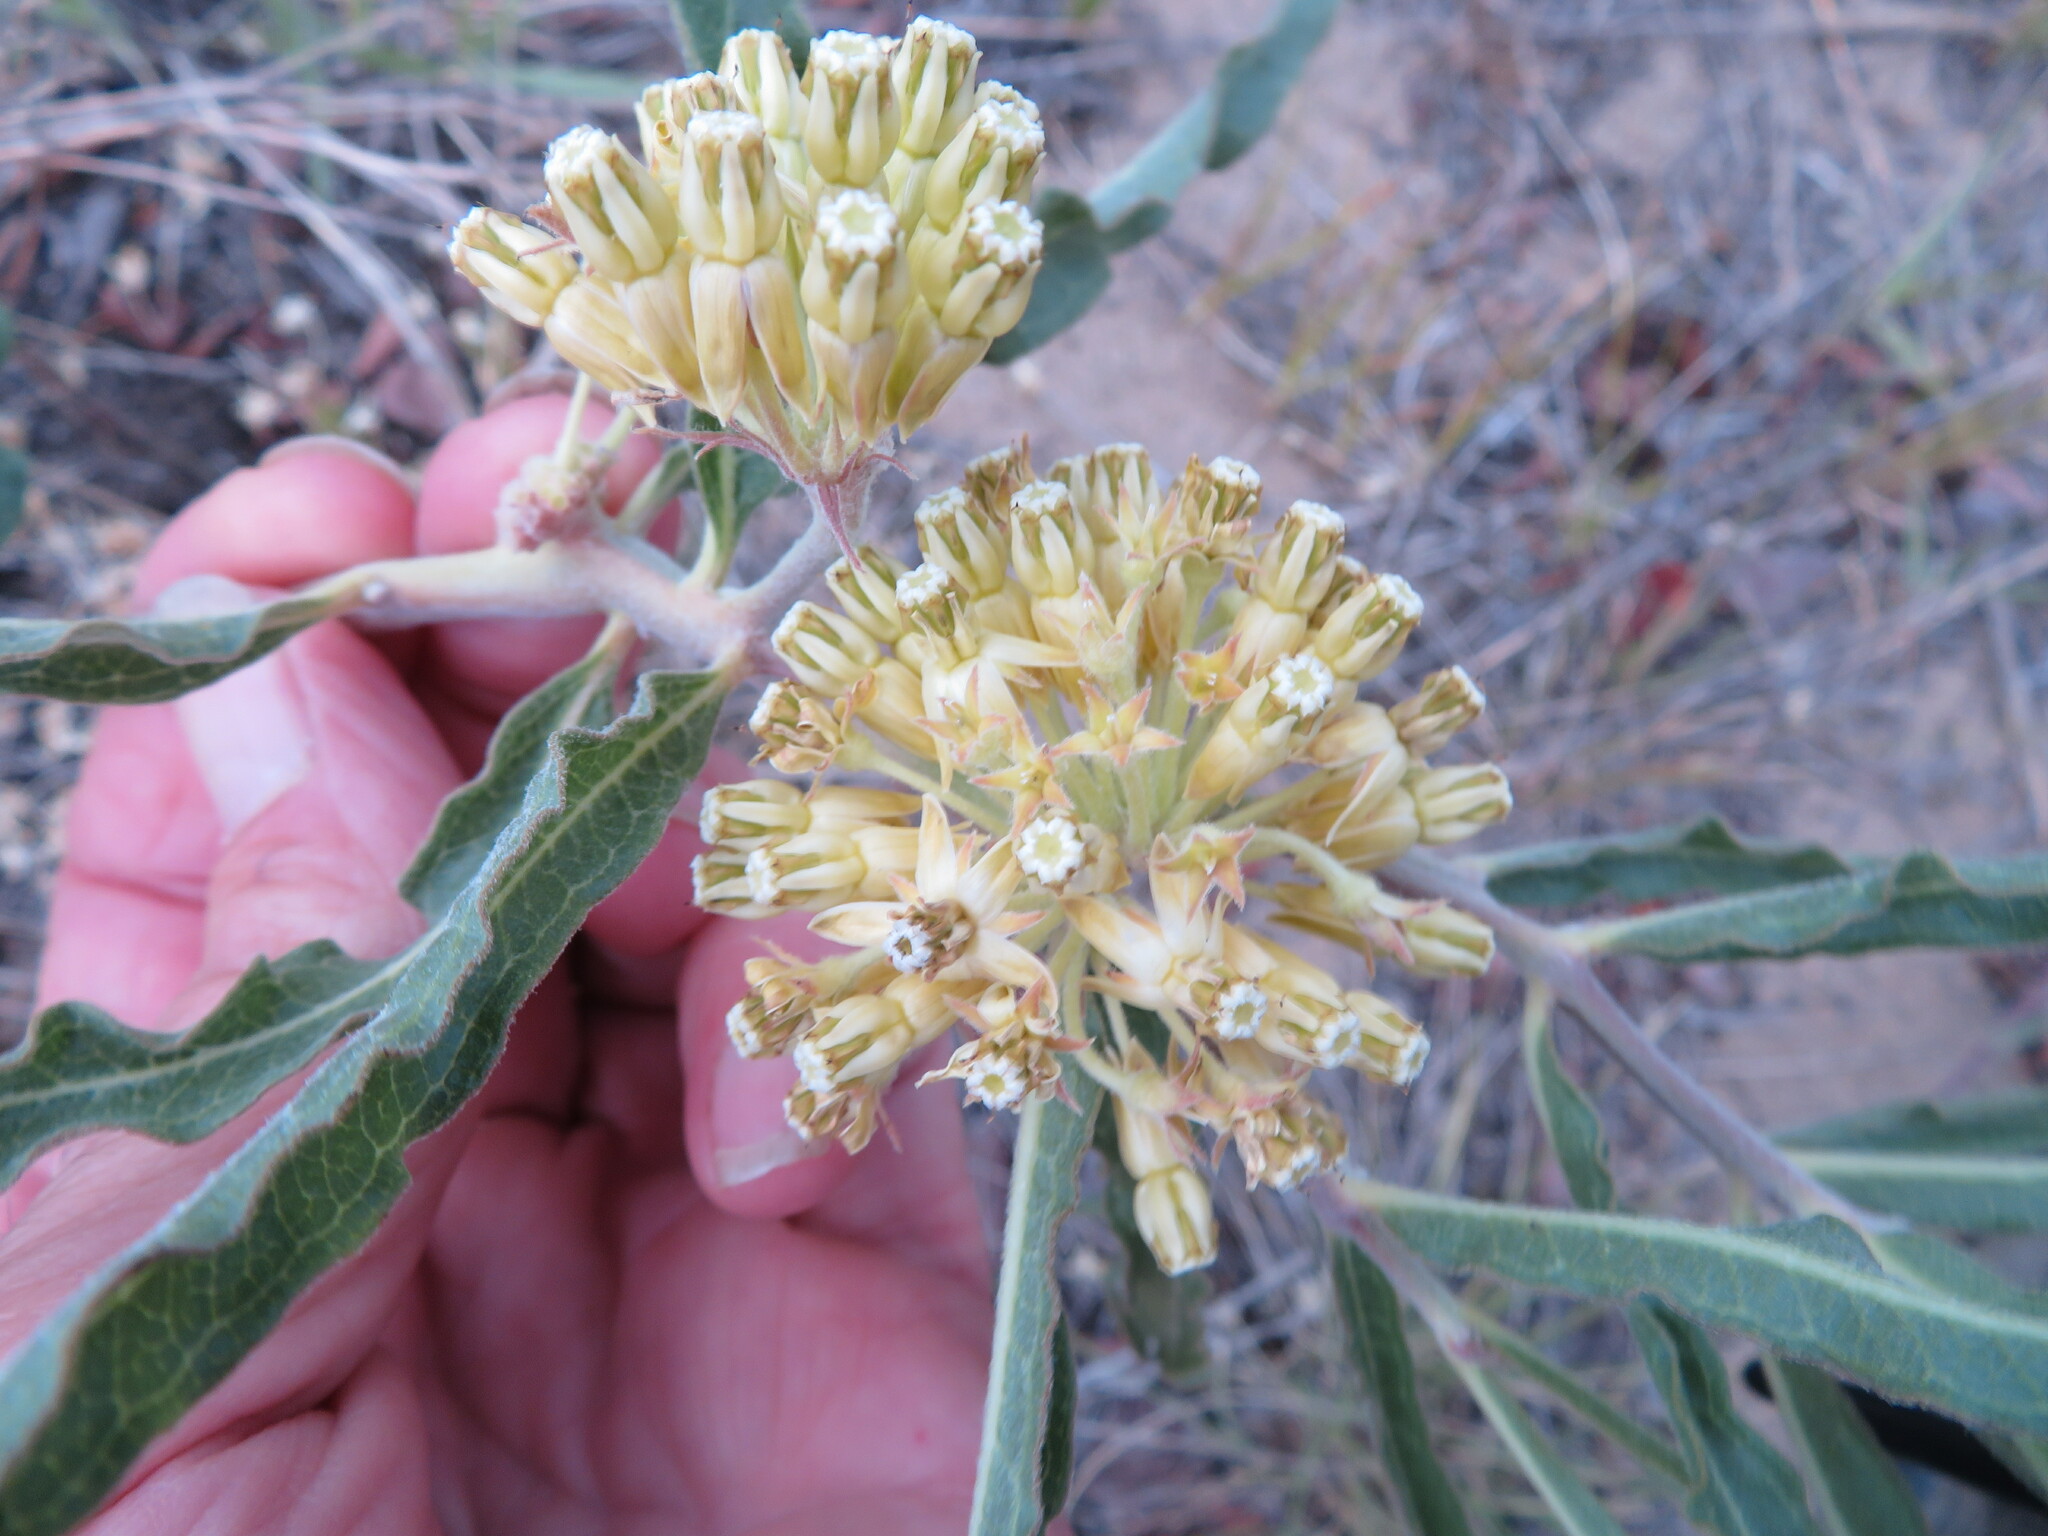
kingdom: Plantae
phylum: Tracheophyta
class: Magnoliopsida
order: Gentianales
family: Apocynaceae
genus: Asclepias
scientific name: Asclepias viridiflora
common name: Green comet milkweed
